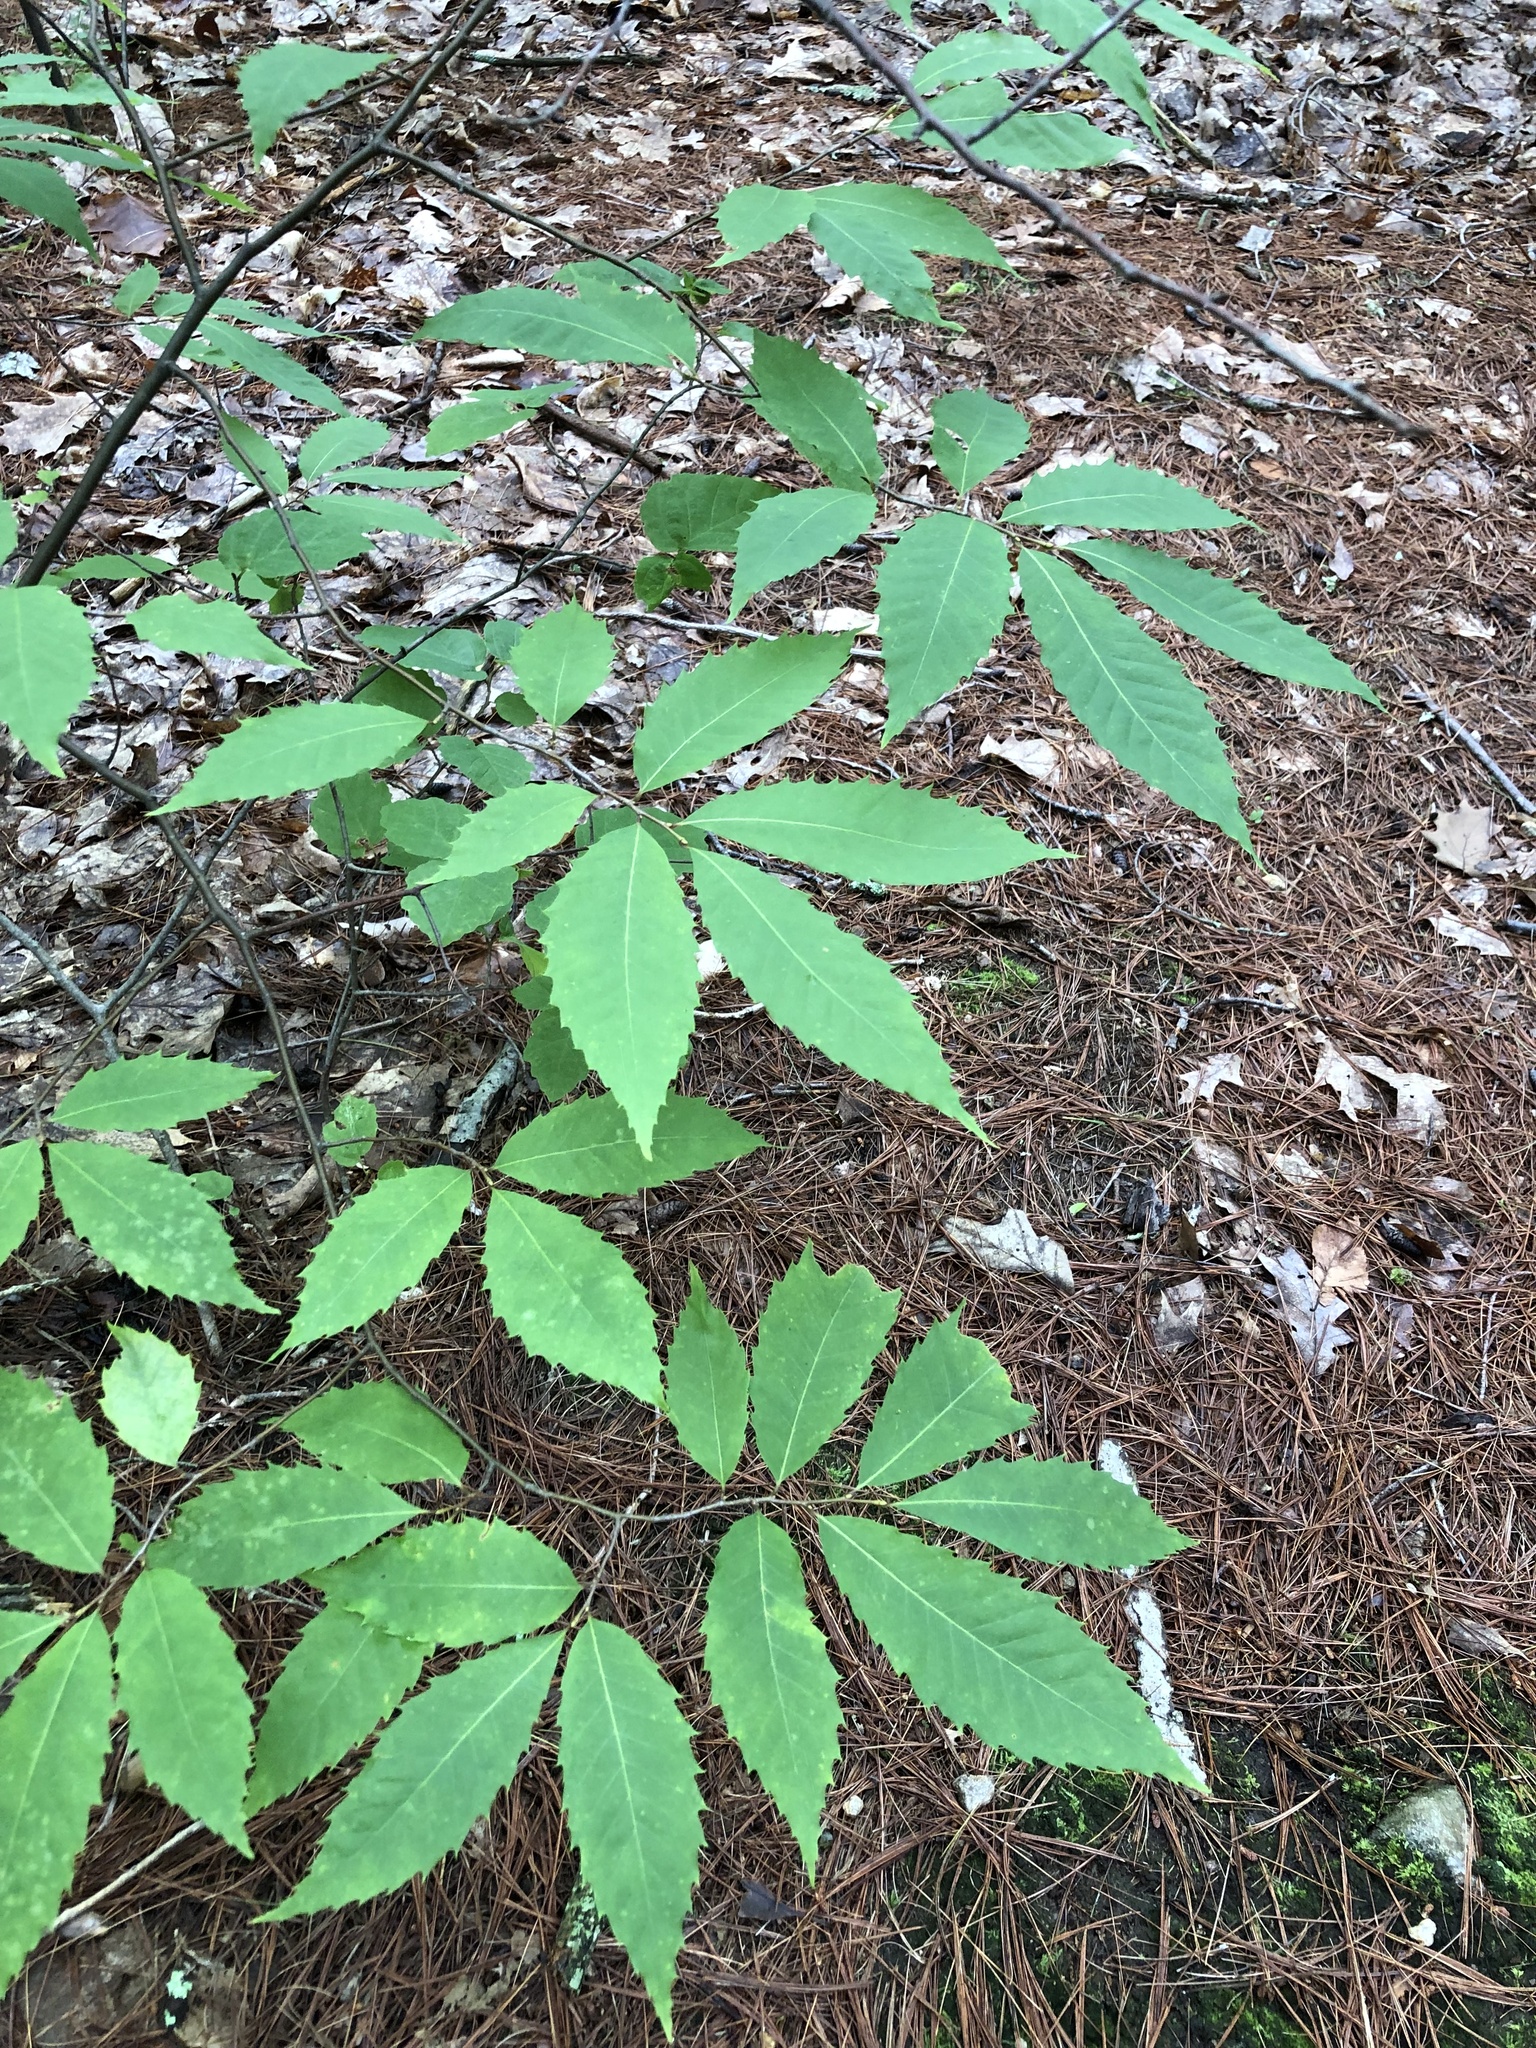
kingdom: Plantae
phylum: Tracheophyta
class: Magnoliopsida
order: Fagales
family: Fagaceae
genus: Castanea
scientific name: Castanea dentata
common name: American chestnut
